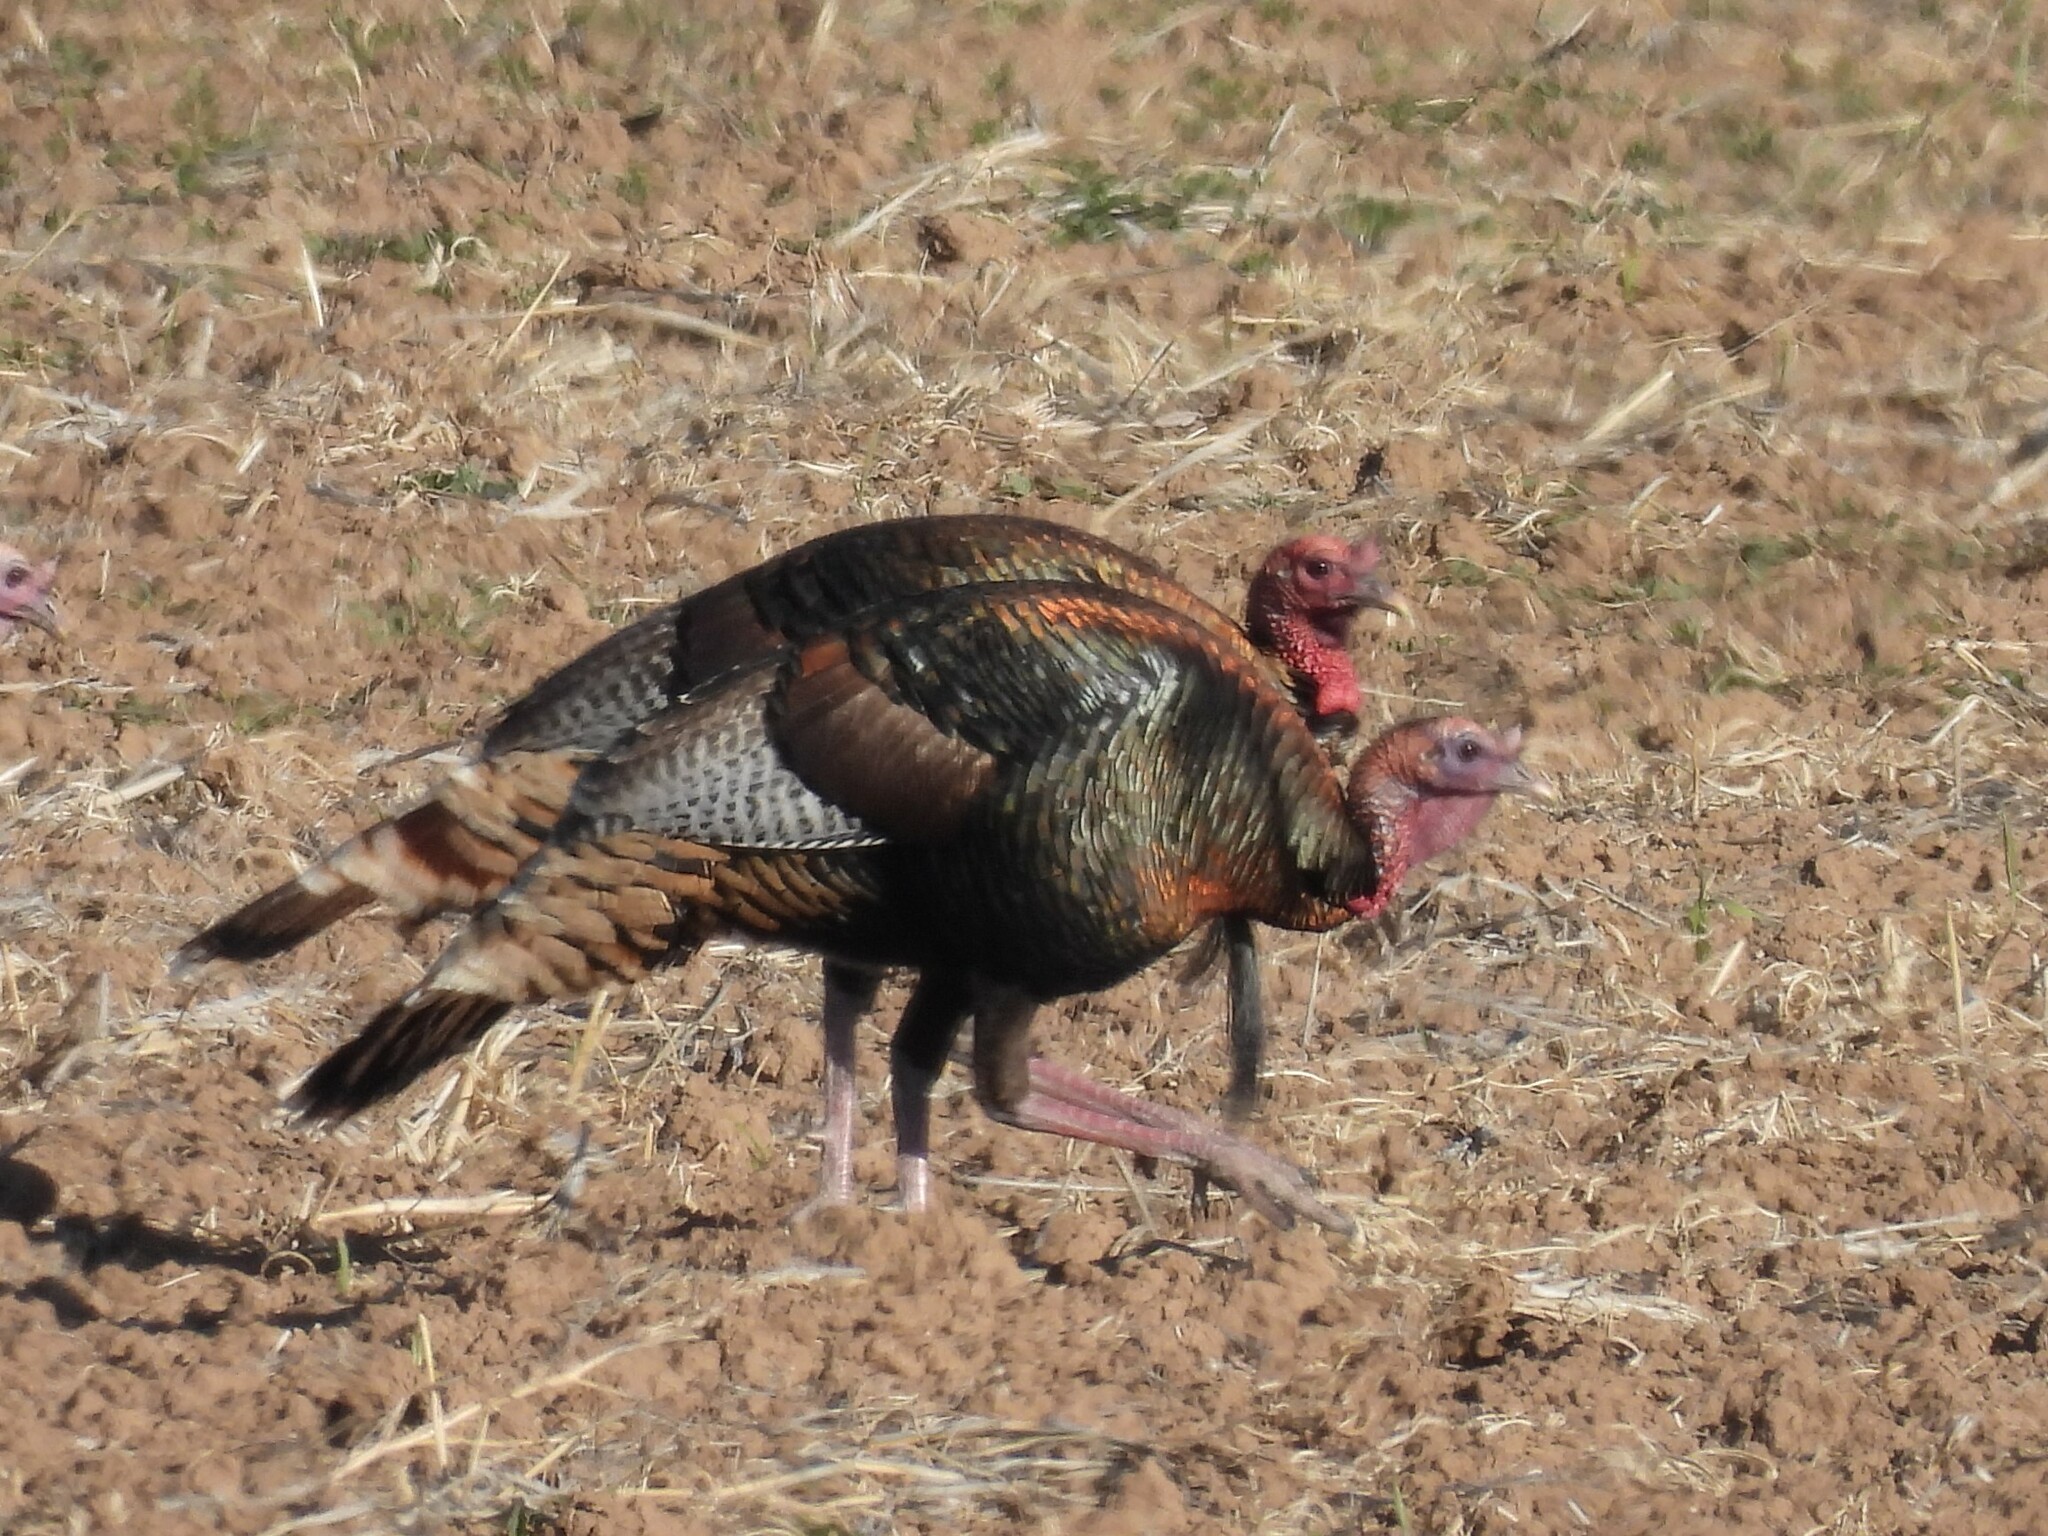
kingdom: Animalia
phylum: Chordata
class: Aves
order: Galliformes
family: Phasianidae
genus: Meleagris
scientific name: Meleagris gallopavo
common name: Wild turkey
